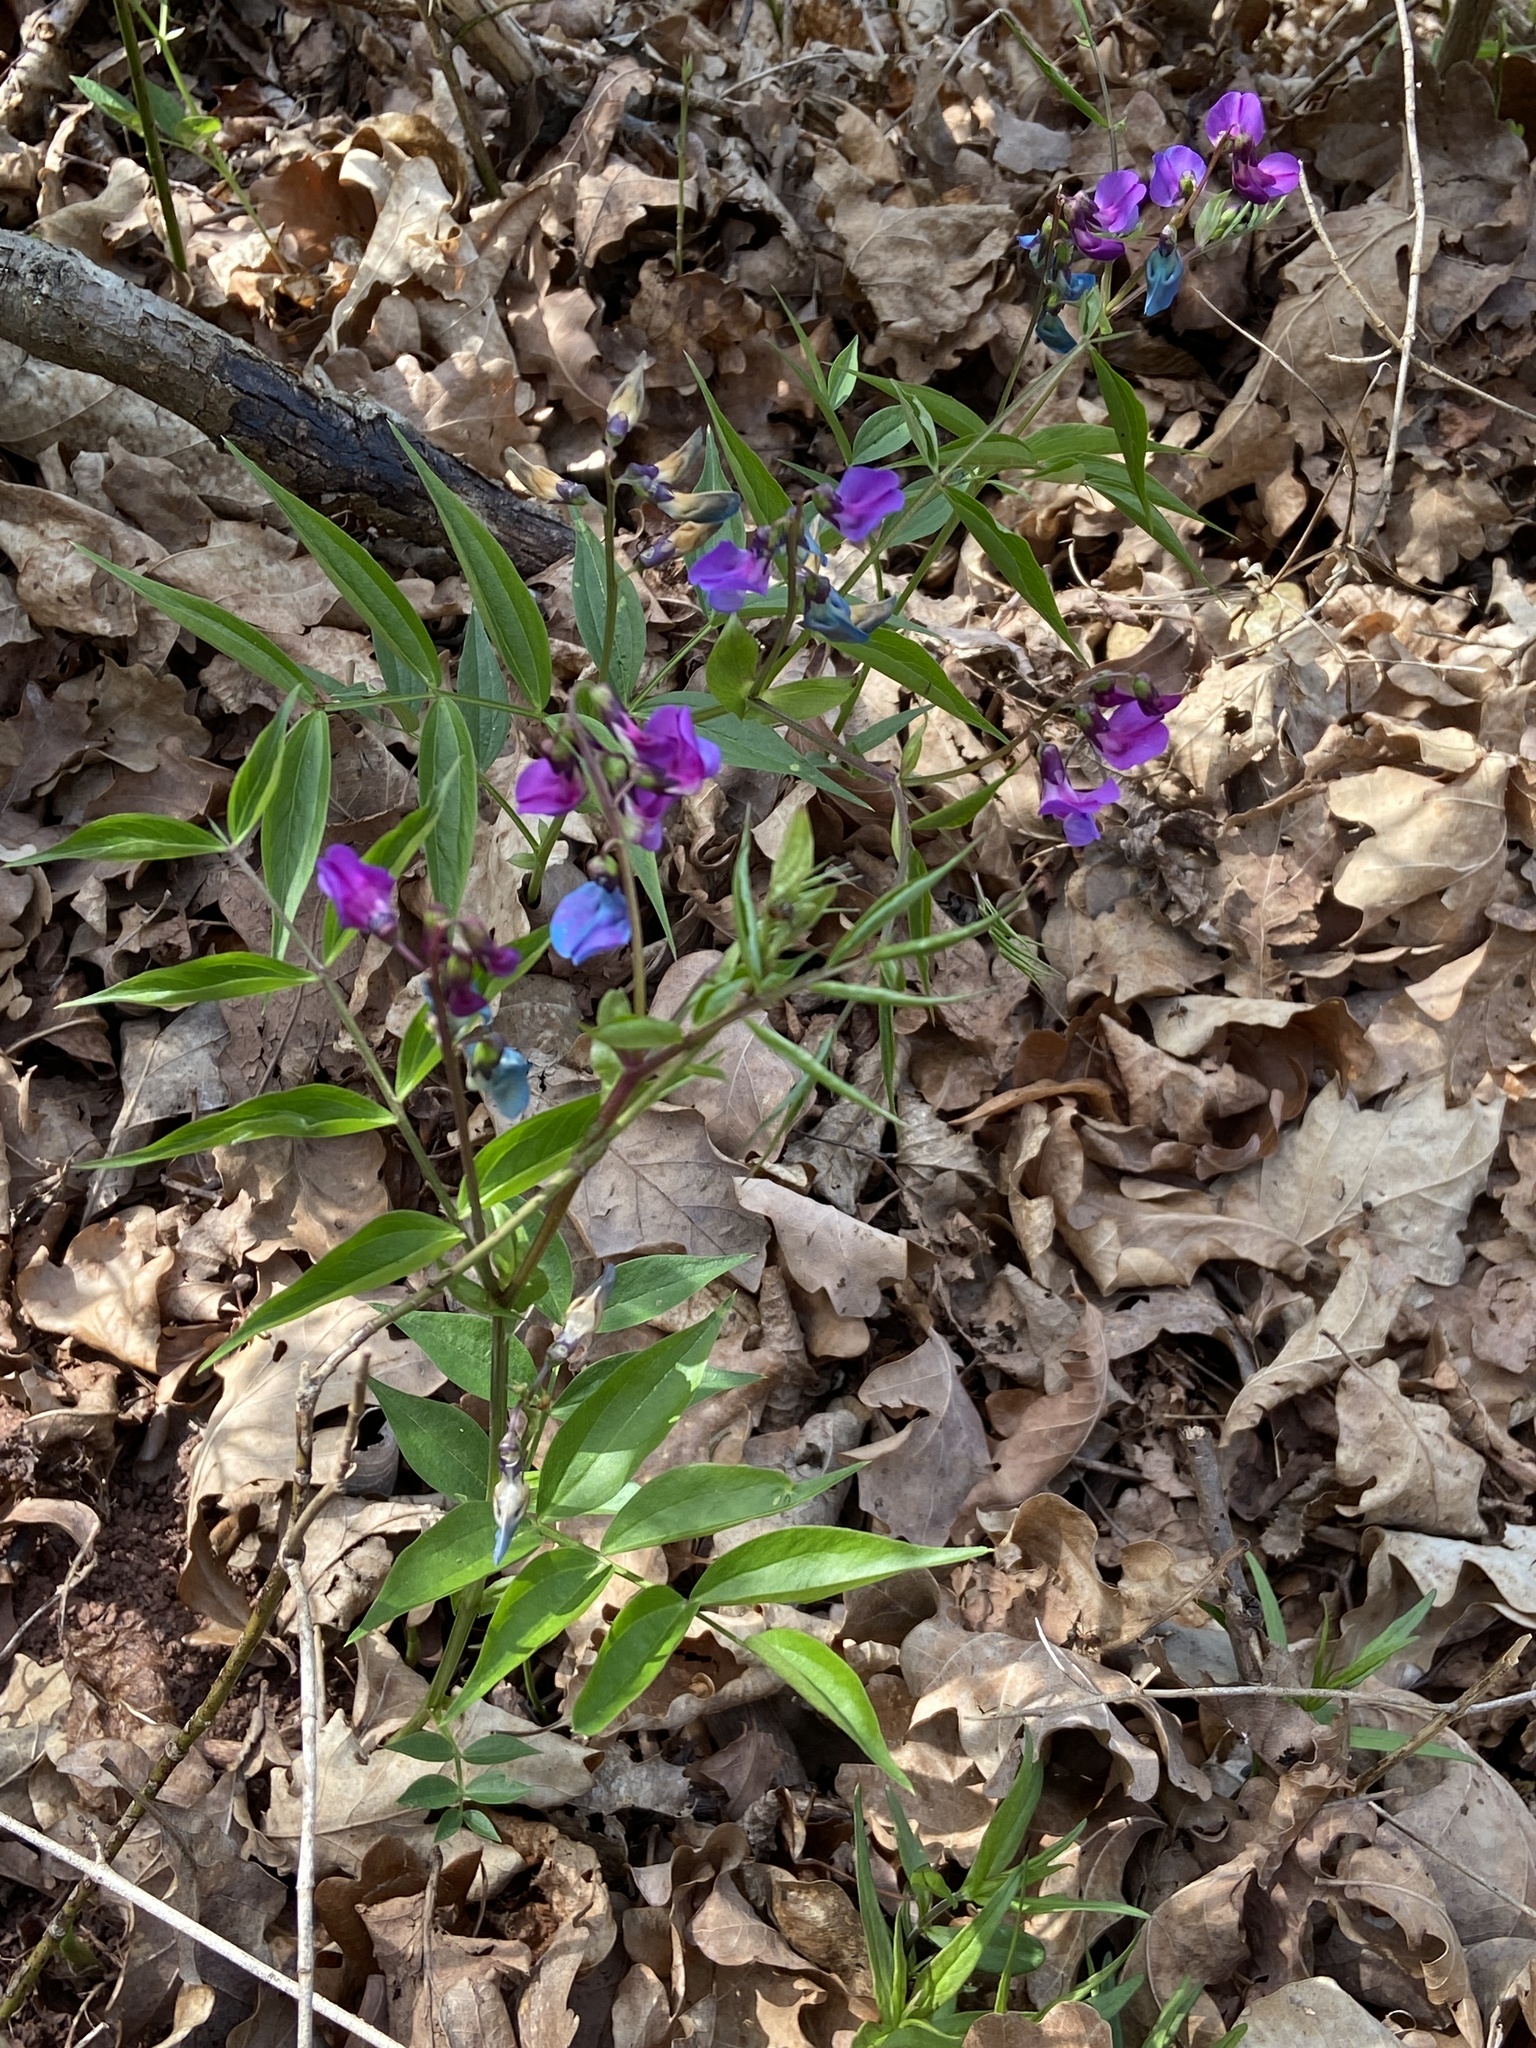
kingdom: Plantae
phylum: Tracheophyta
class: Magnoliopsida
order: Fabales
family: Fabaceae
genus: Lathyrus
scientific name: Lathyrus vernus
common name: Spring pea
